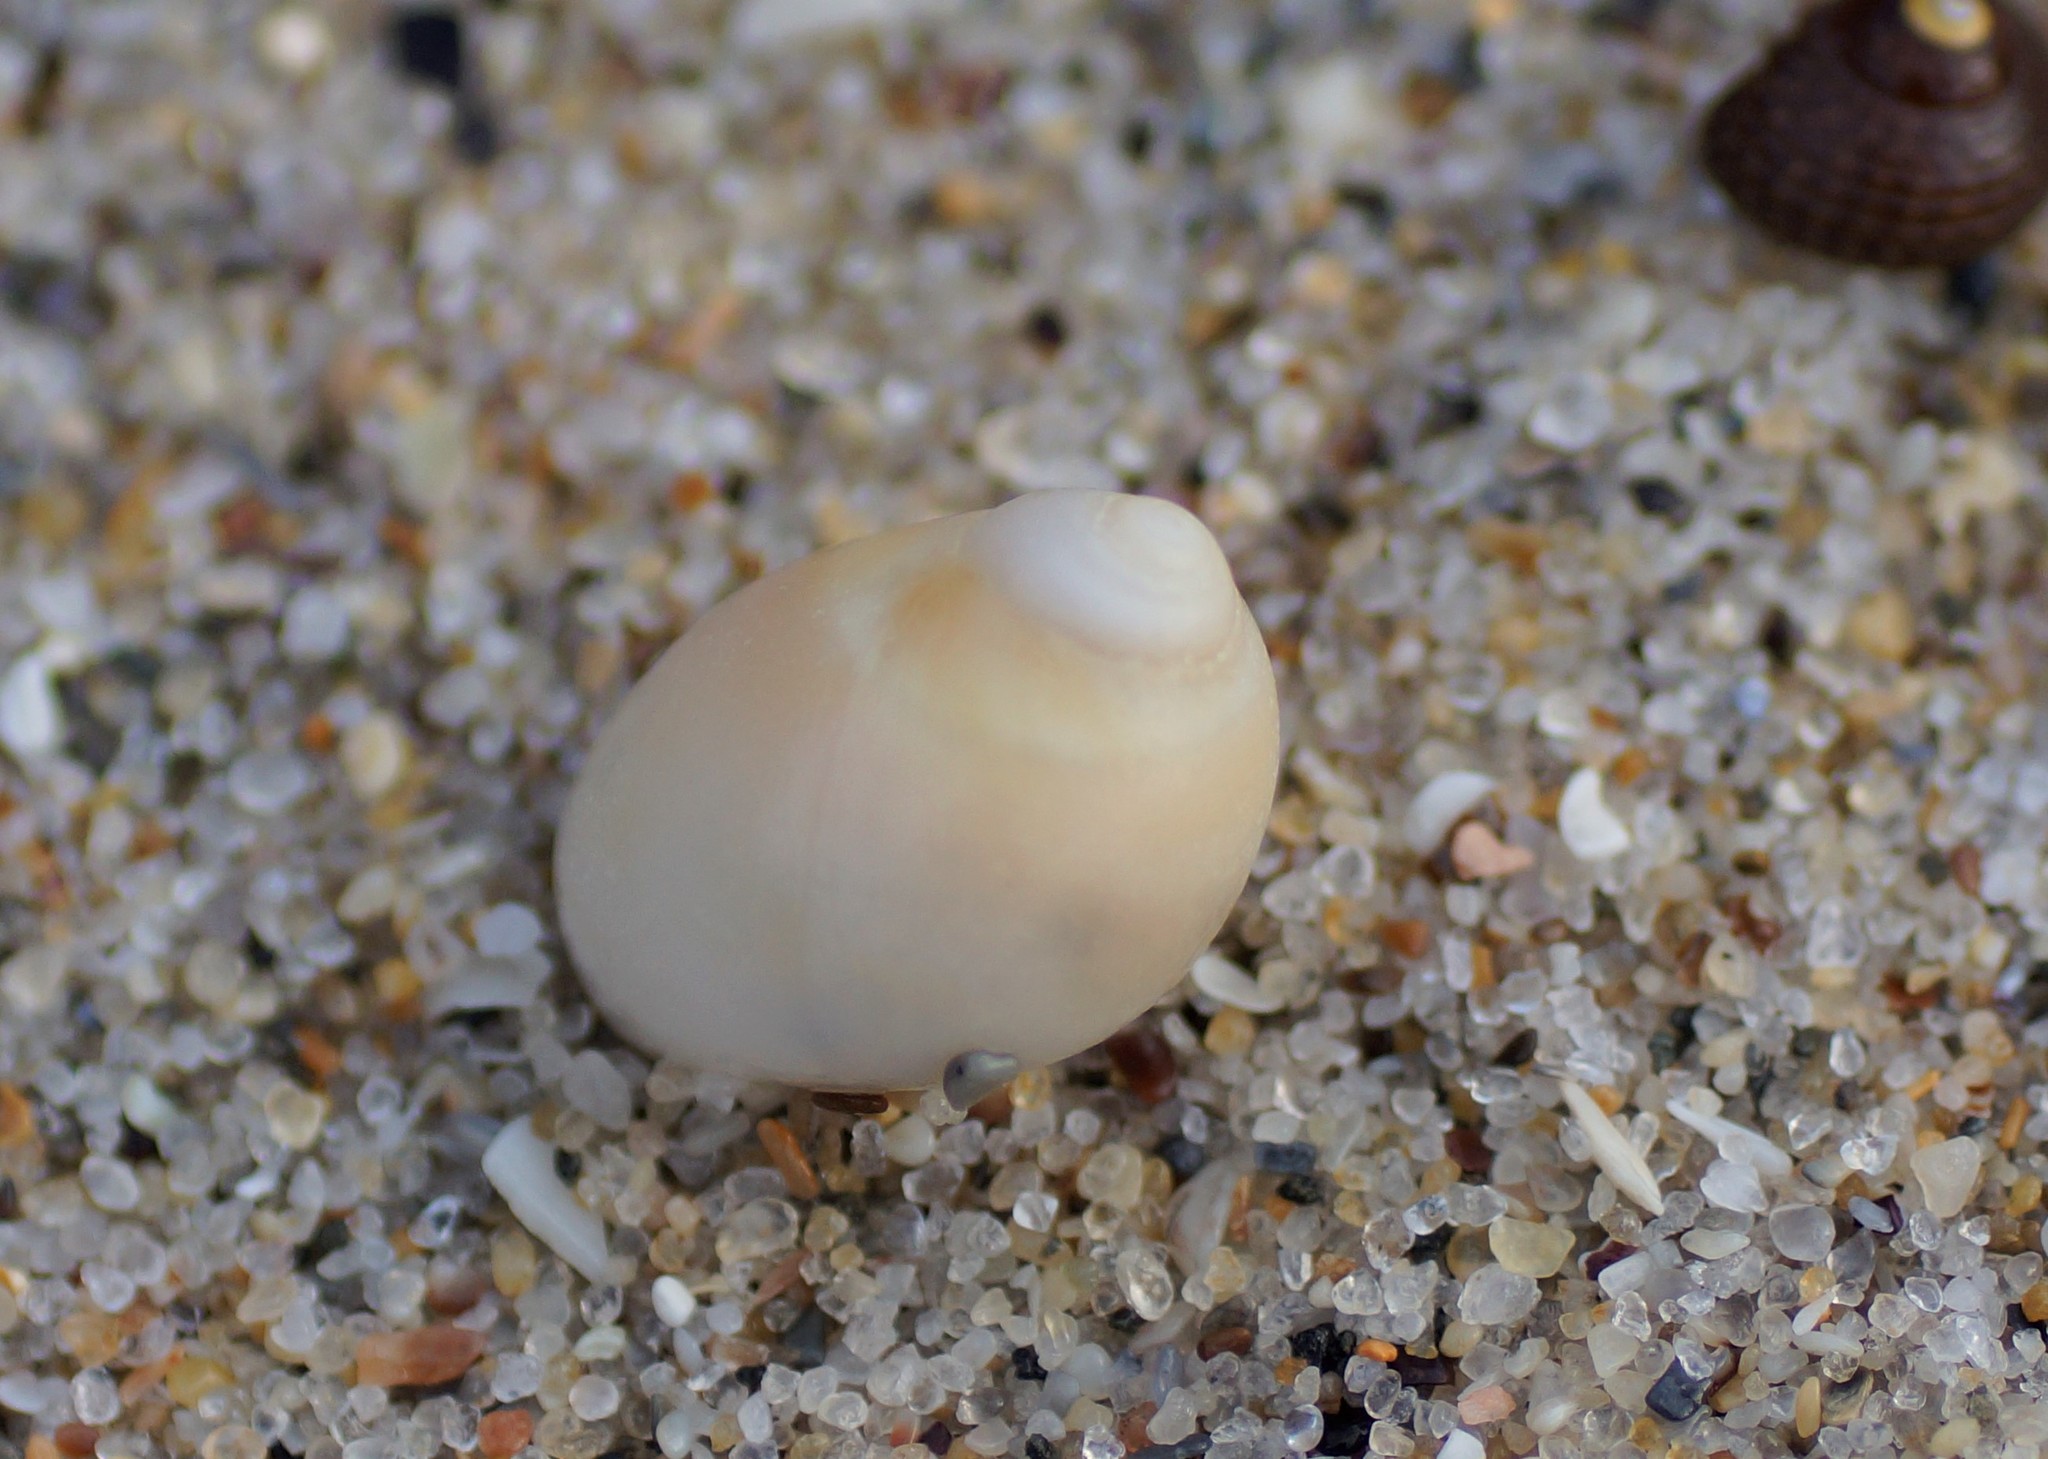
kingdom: Animalia
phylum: Mollusca
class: Gastropoda
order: Littorinimorpha
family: Naticidae
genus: Conuber
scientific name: Conuber conicum
